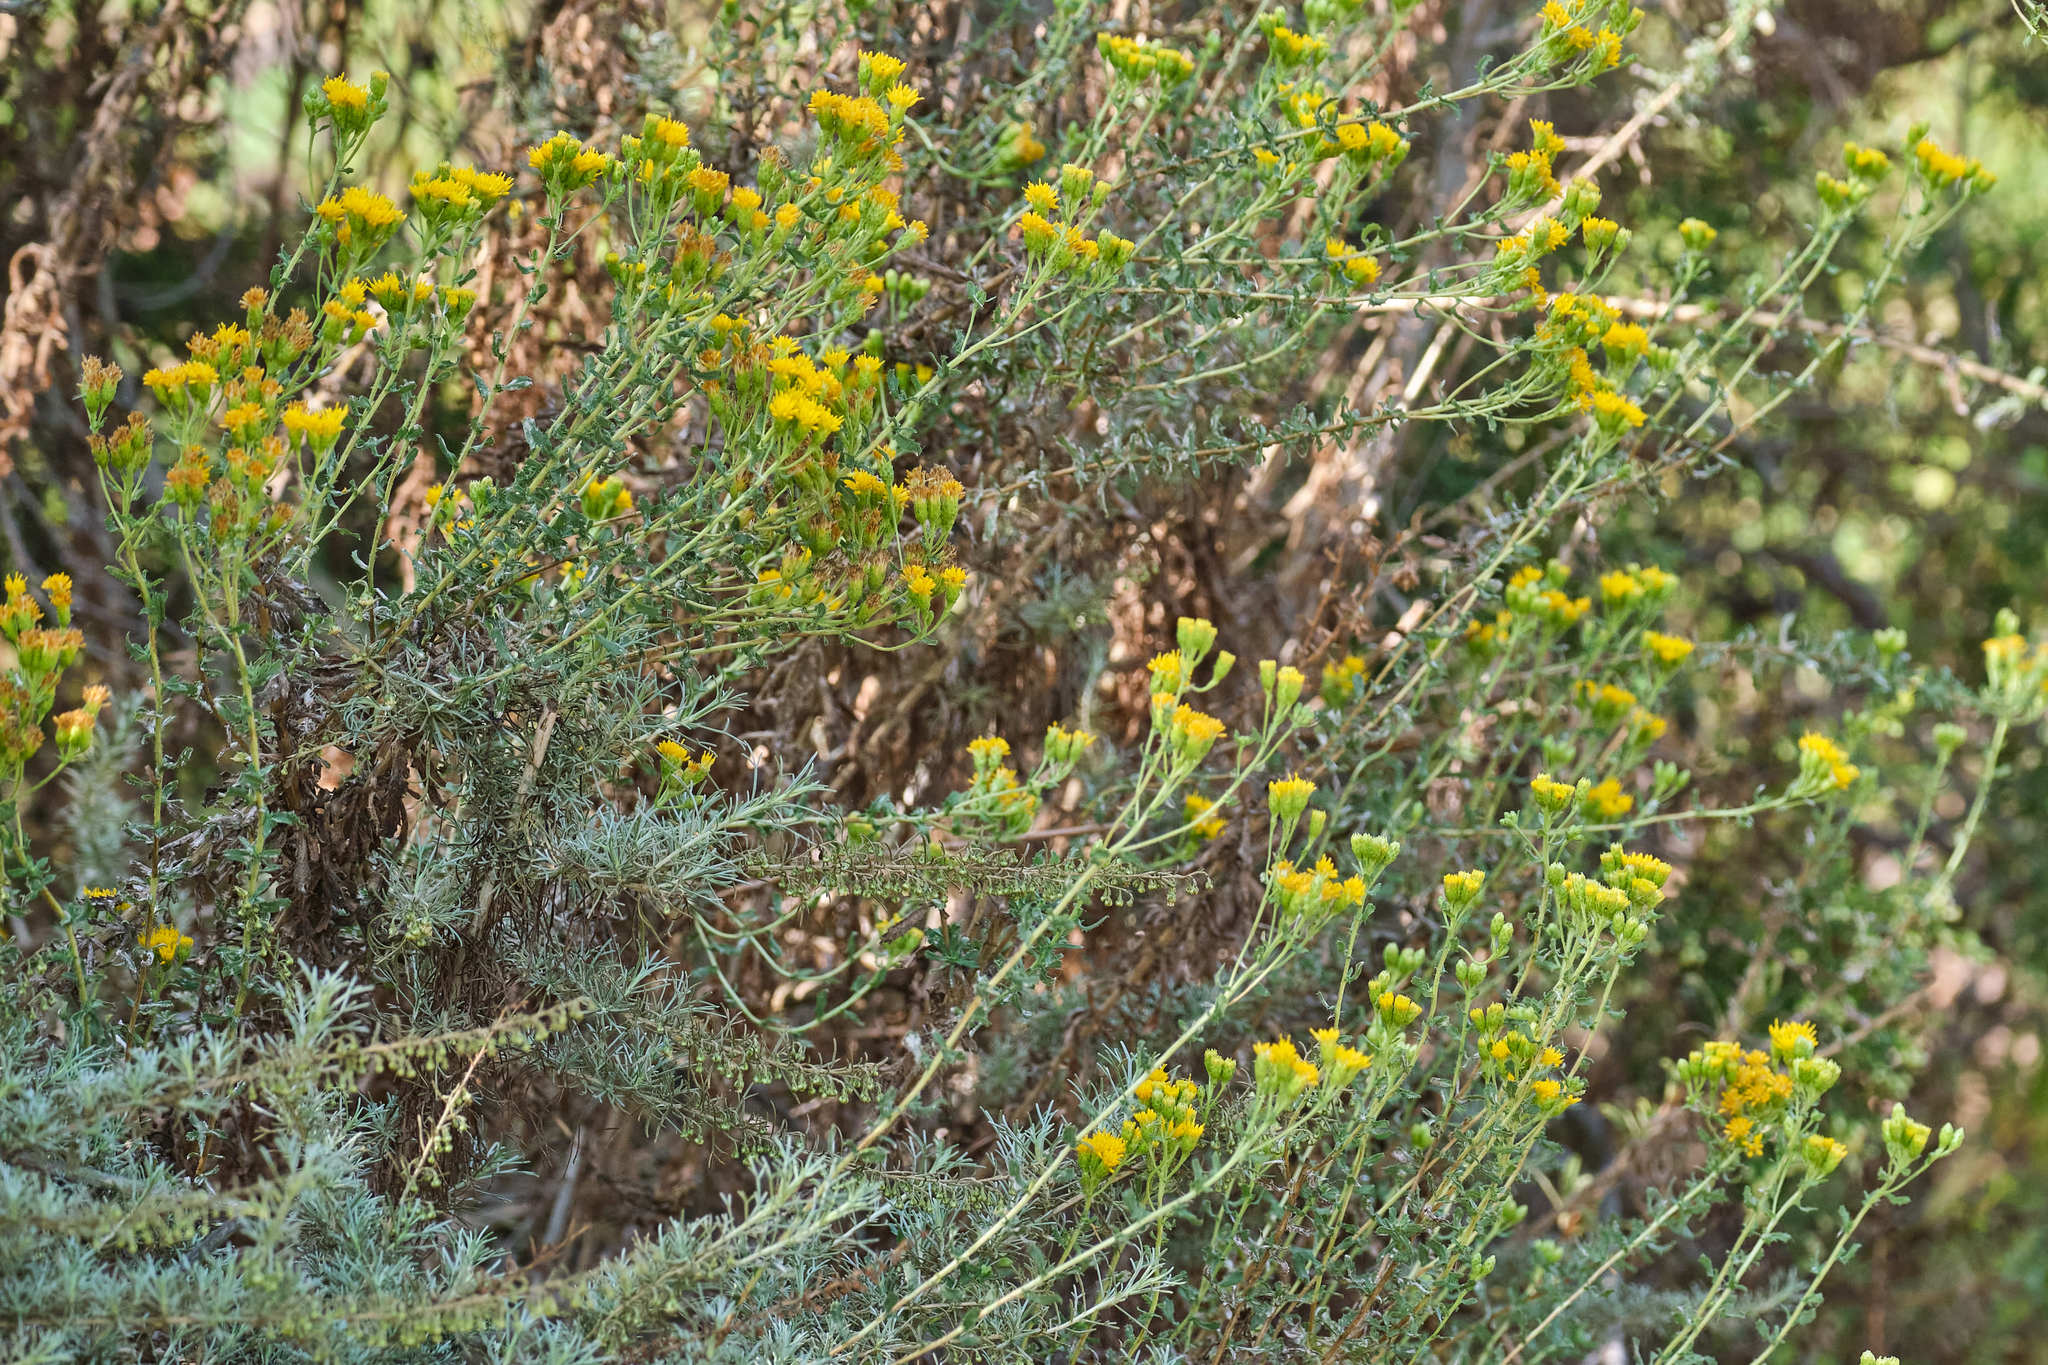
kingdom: Plantae
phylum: Tracheophyta
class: Magnoliopsida
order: Asterales
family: Asteraceae
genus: Isocoma
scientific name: Isocoma menziesii
